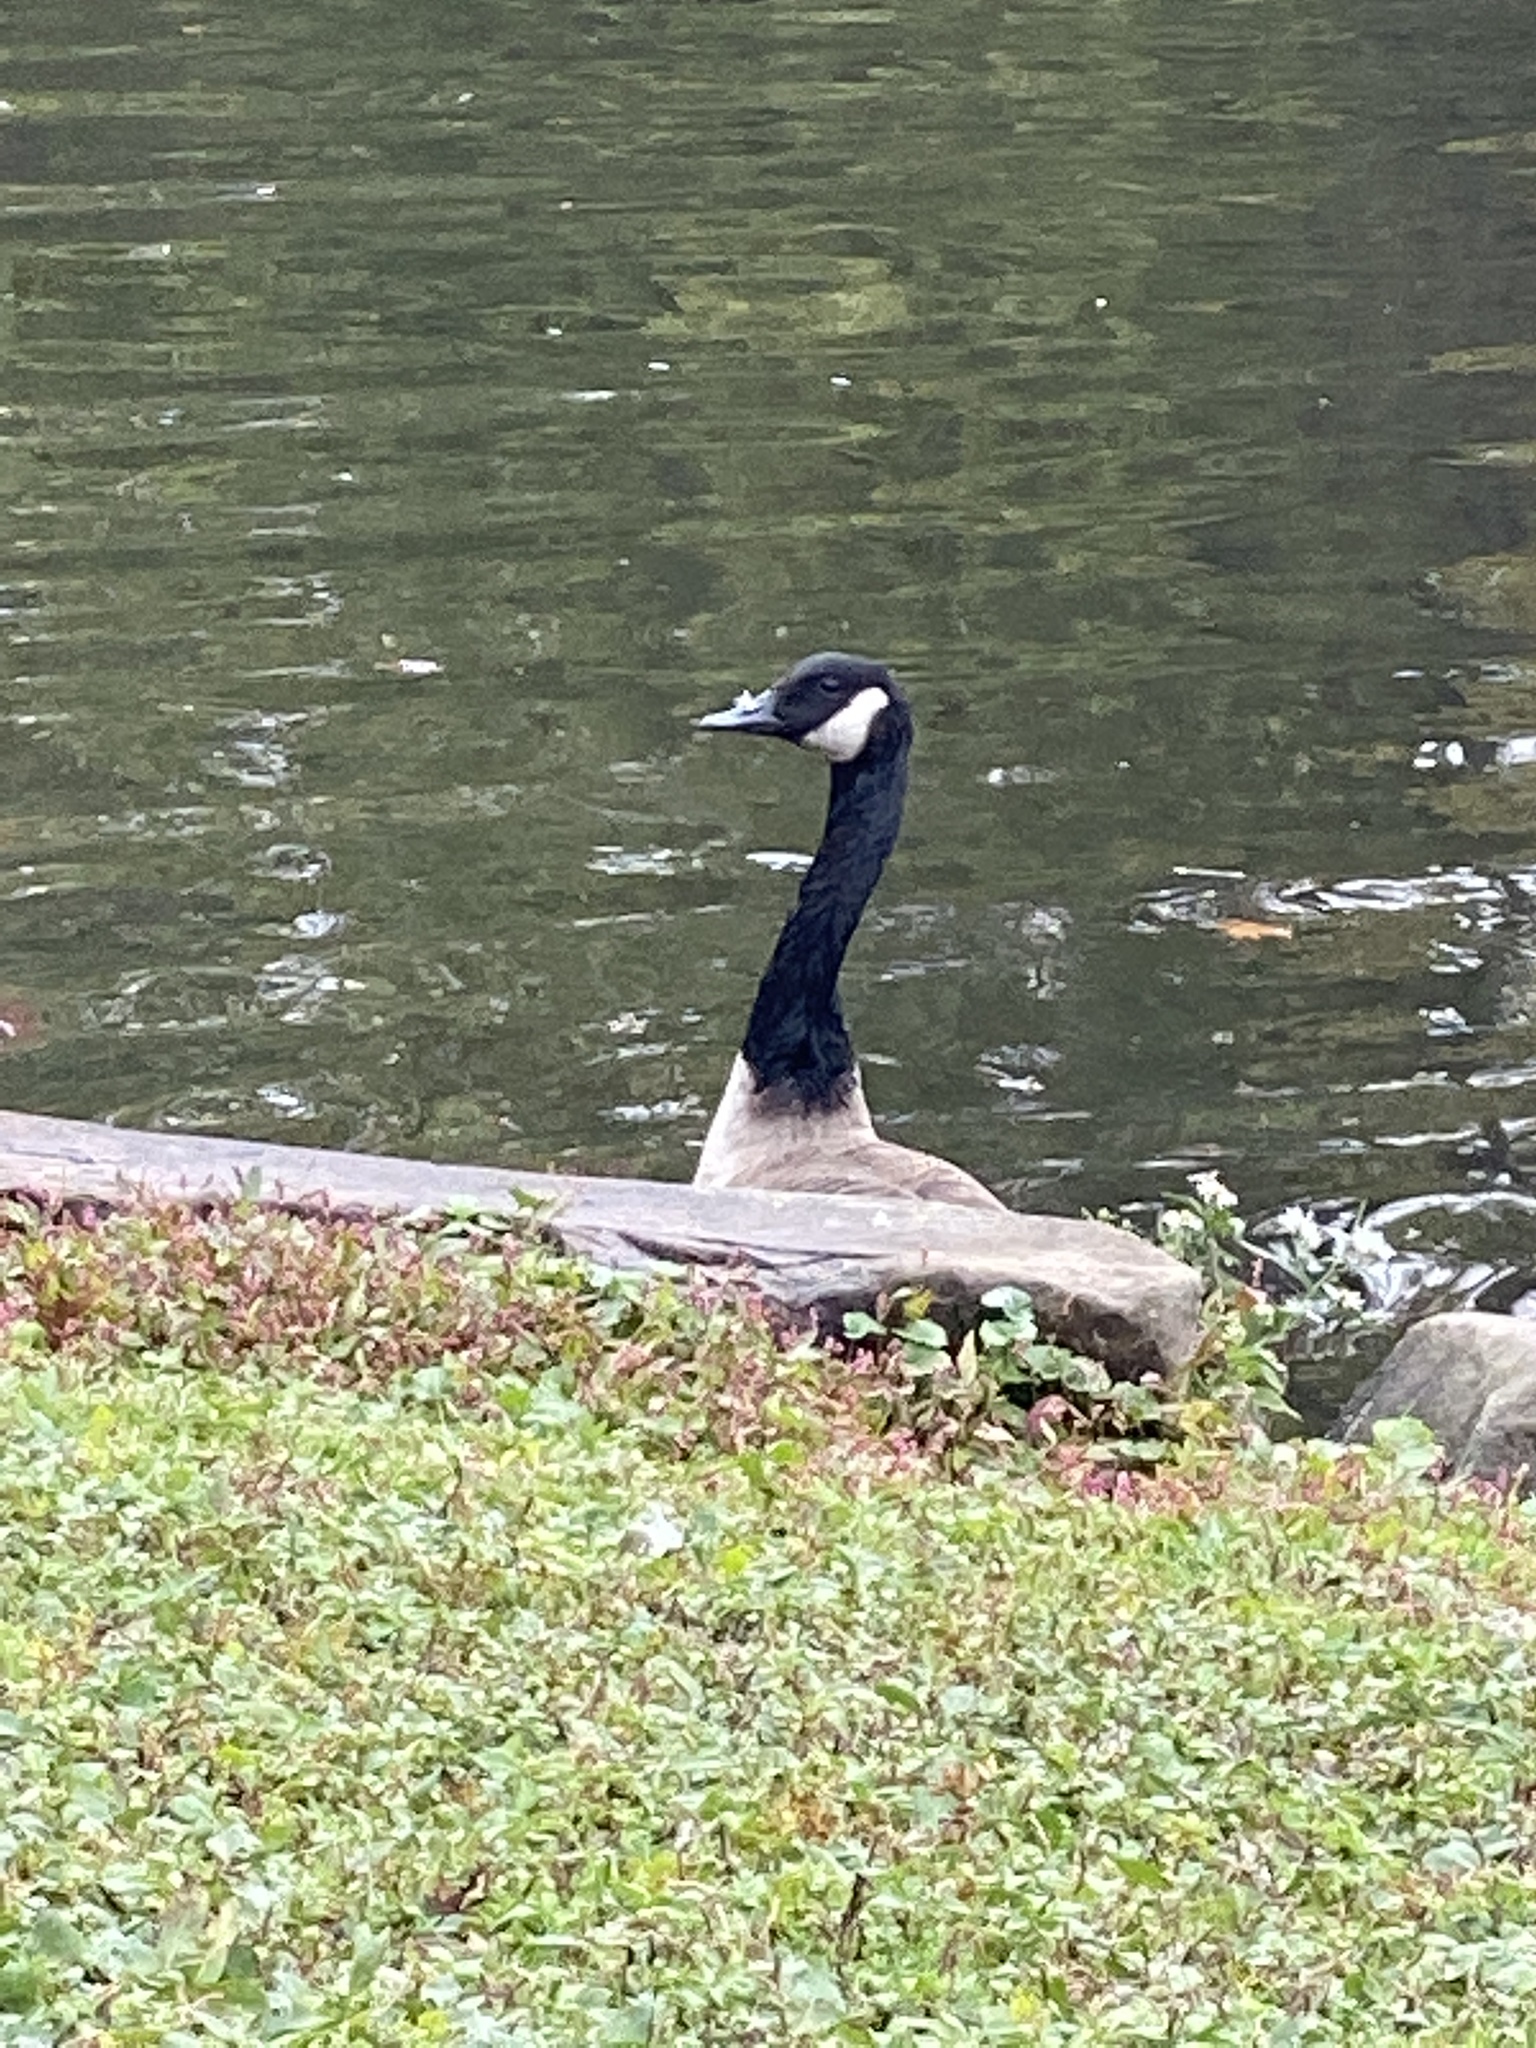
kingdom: Animalia
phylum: Chordata
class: Aves
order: Anseriformes
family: Anatidae
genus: Branta
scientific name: Branta canadensis
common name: Canada goose
